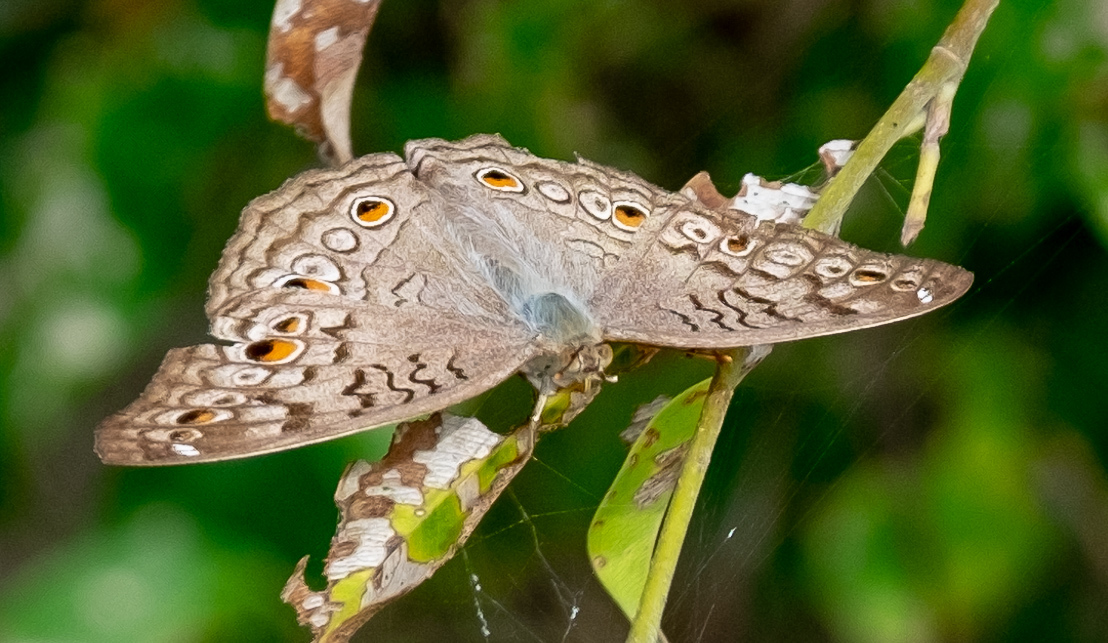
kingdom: Animalia
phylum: Arthropoda
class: Insecta
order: Lepidoptera
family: Nymphalidae
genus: Junonia
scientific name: Junonia atlites
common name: Grey pansy
